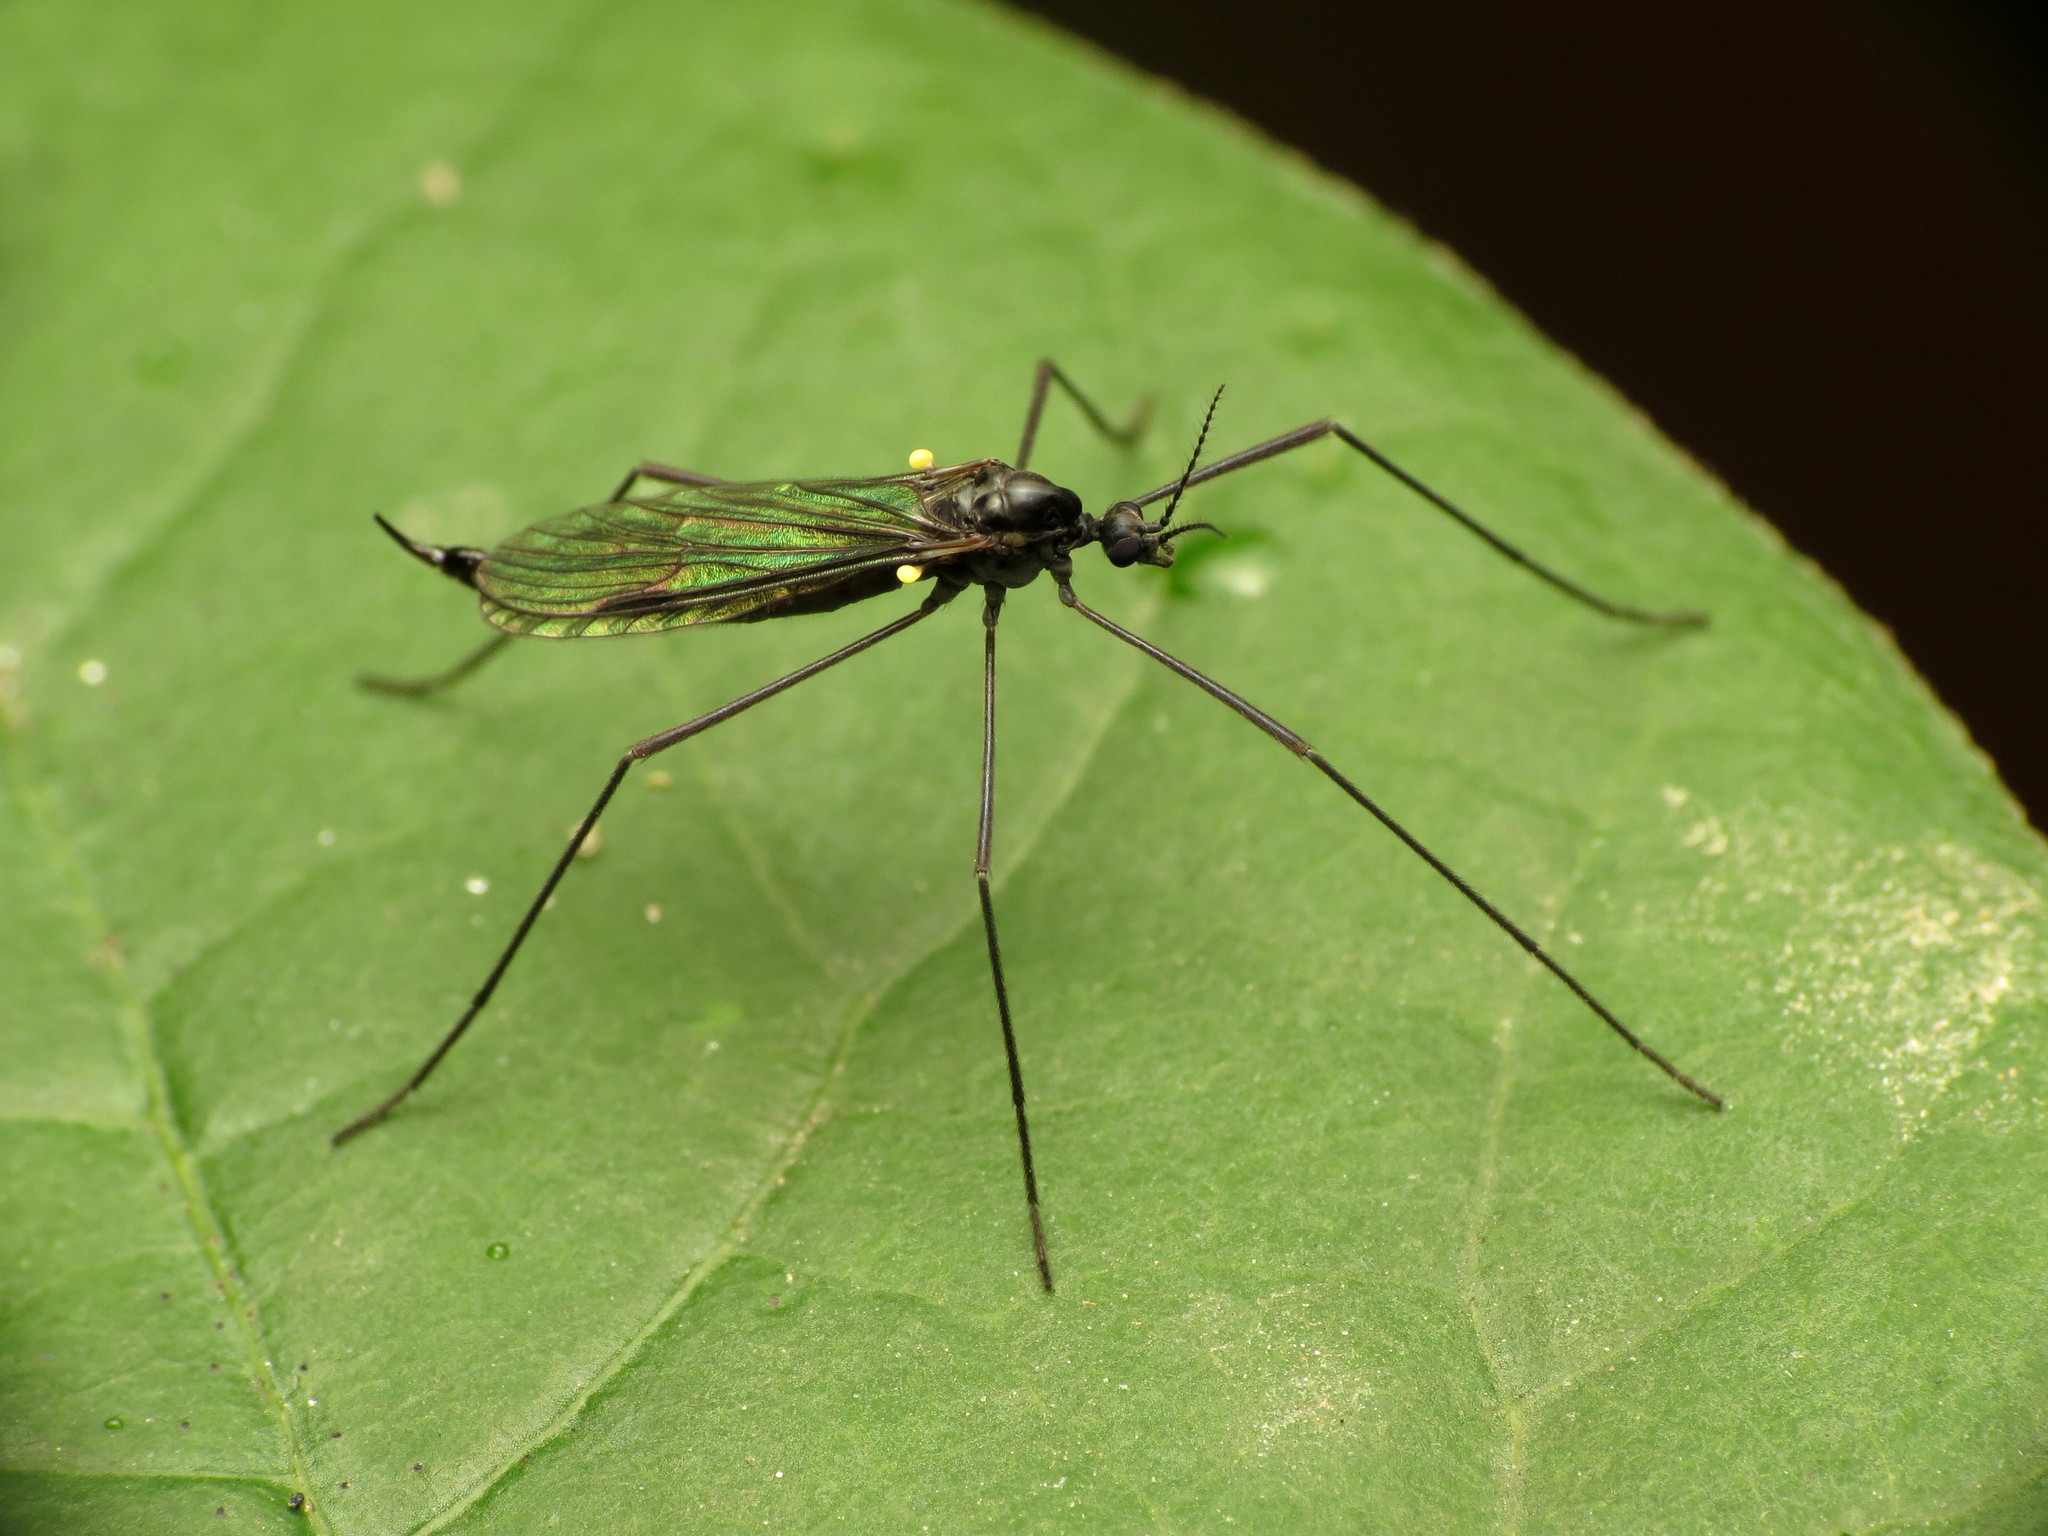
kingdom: Animalia
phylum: Arthropoda
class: Insecta
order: Diptera
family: Limoniidae
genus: Gnophomyia
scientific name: Gnophomyia tristissima
